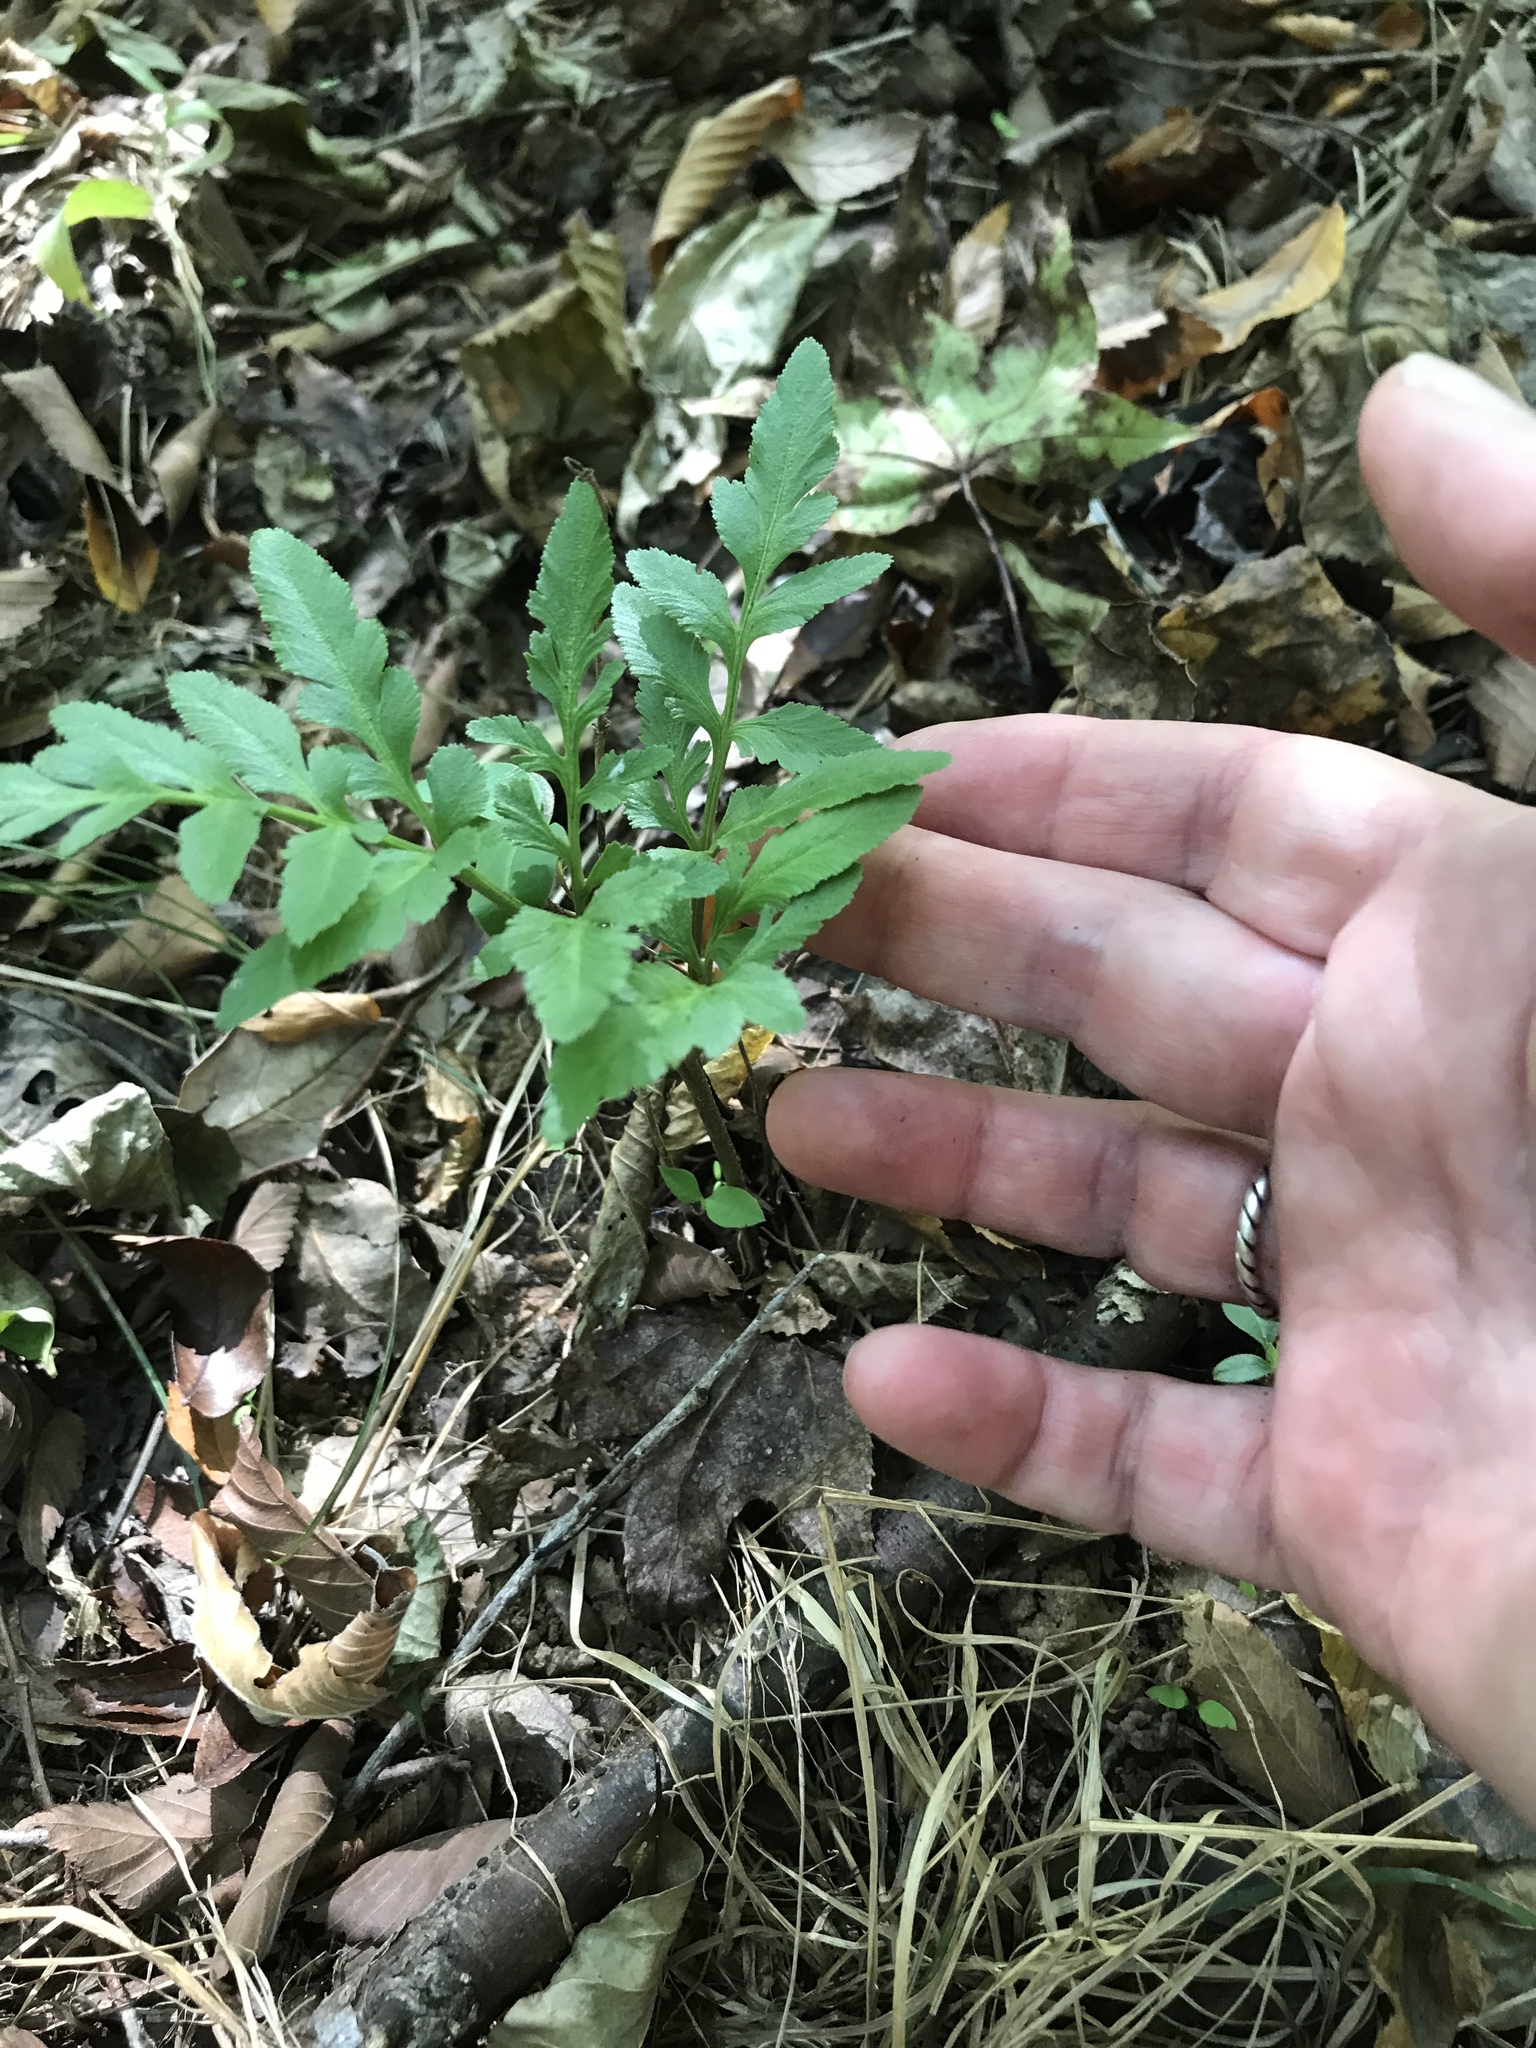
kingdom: Plantae
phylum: Tracheophyta
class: Polypodiopsida
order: Ophioglossales
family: Ophioglossaceae
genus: Sceptridium
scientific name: Sceptridium biternatum
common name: Sparse-lobed grapefern
